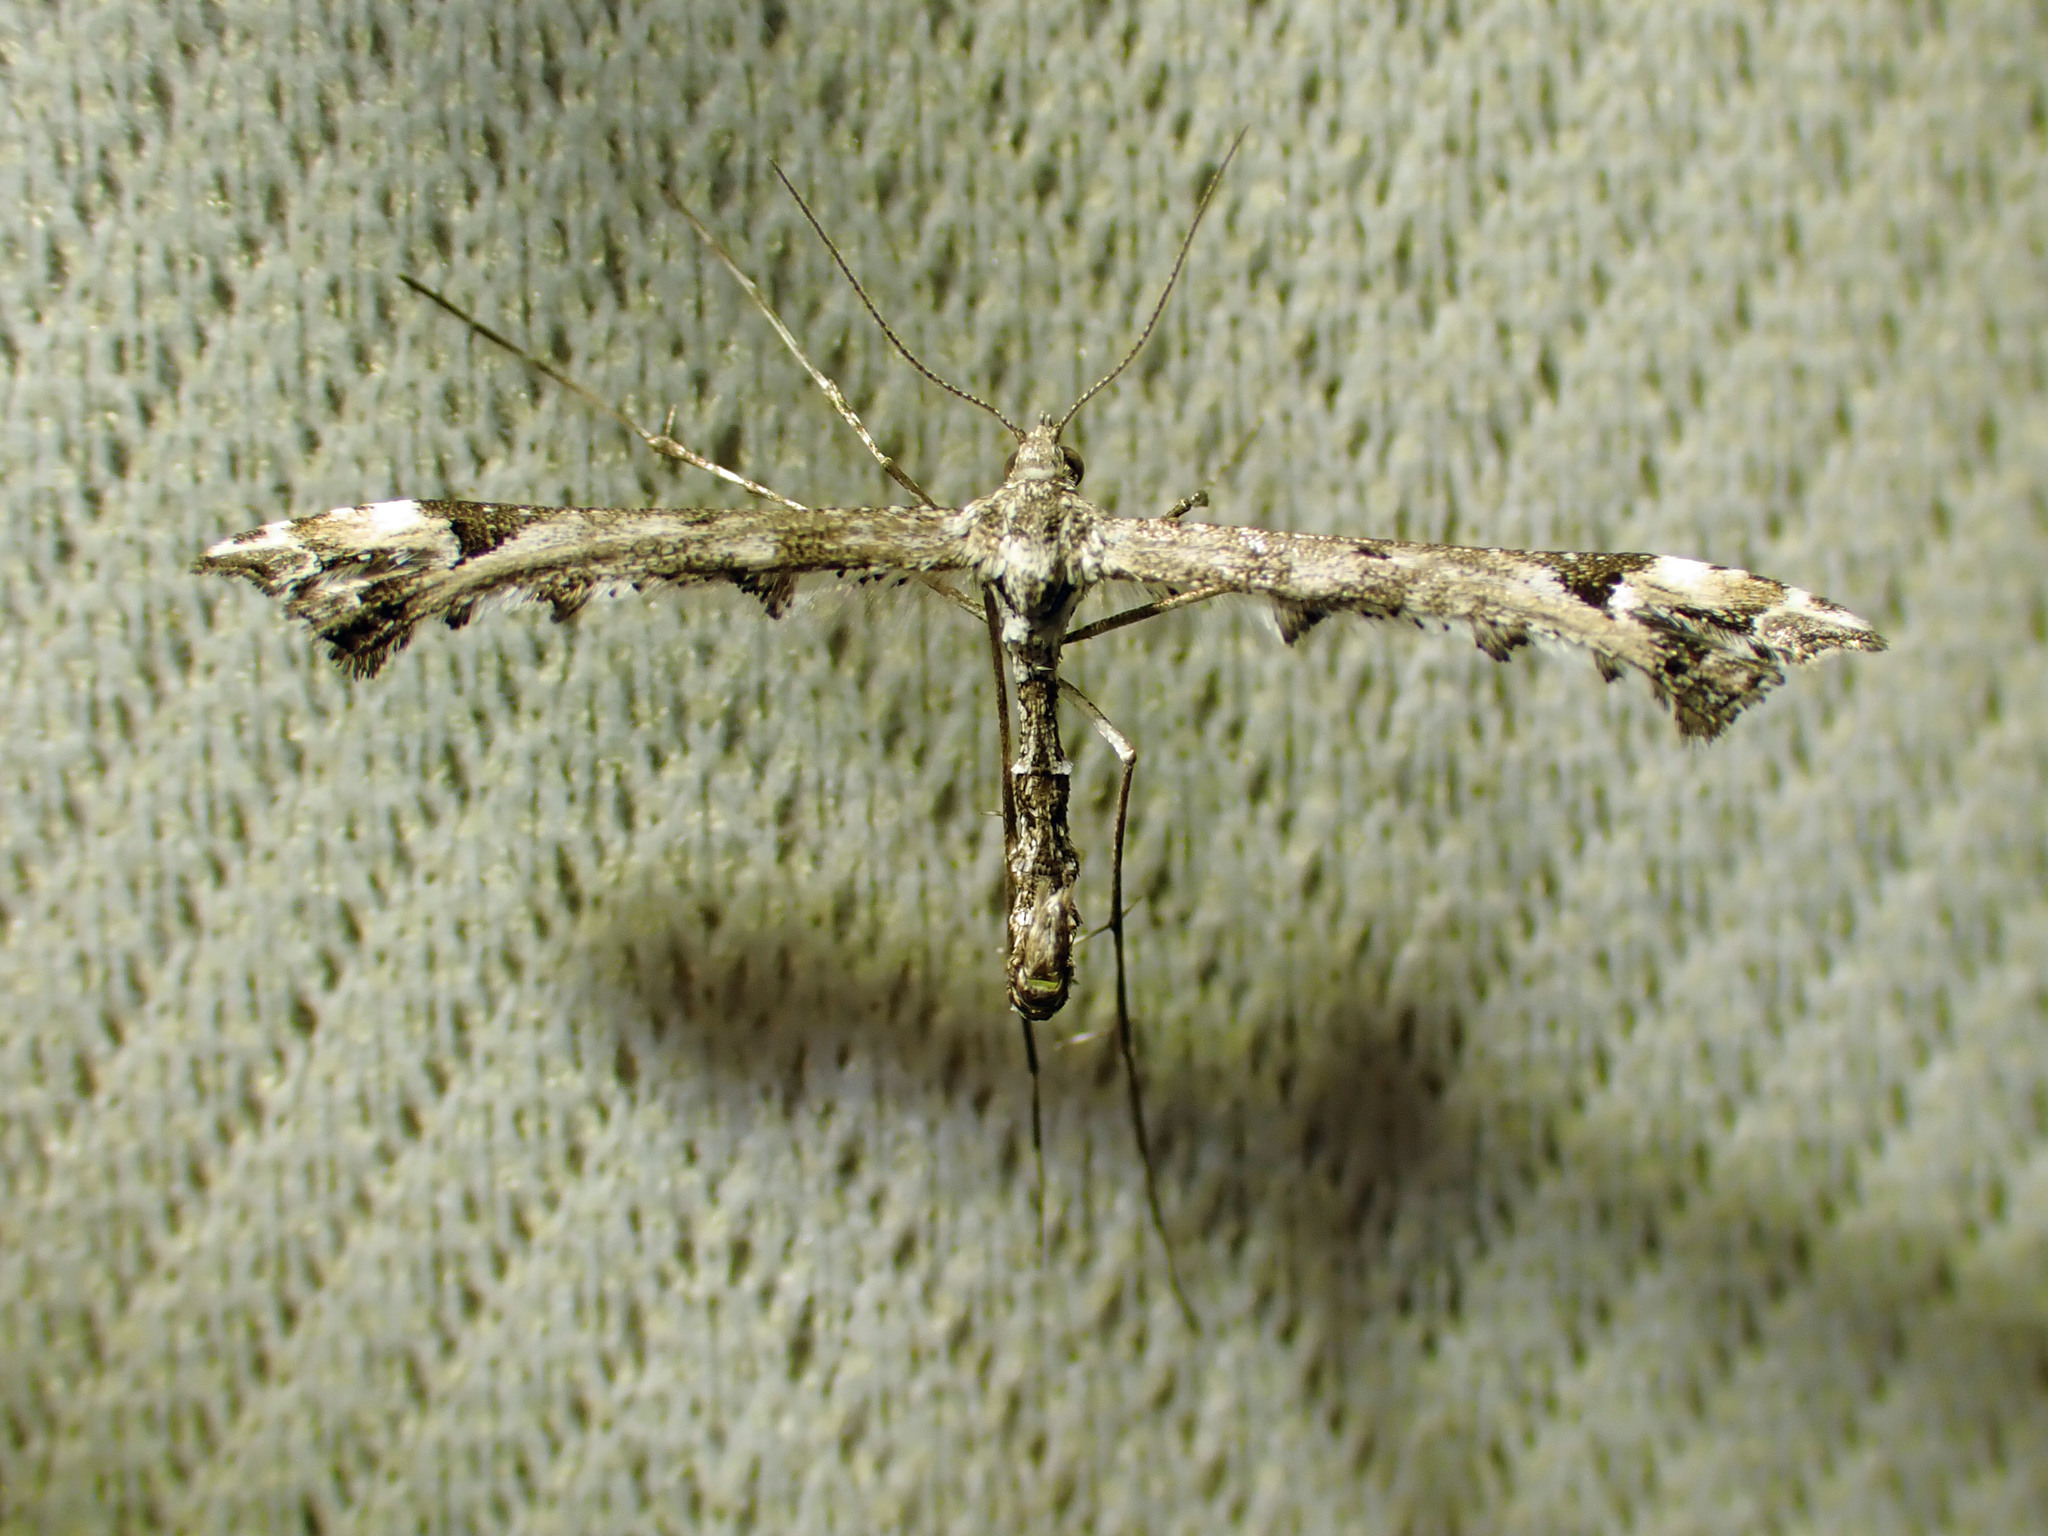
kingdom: Animalia
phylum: Arthropoda
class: Insecta
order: Lepidoptera
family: Pterophoridae
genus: Amblyptilia
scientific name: Amblyptilia pica
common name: Geranium plume moth
